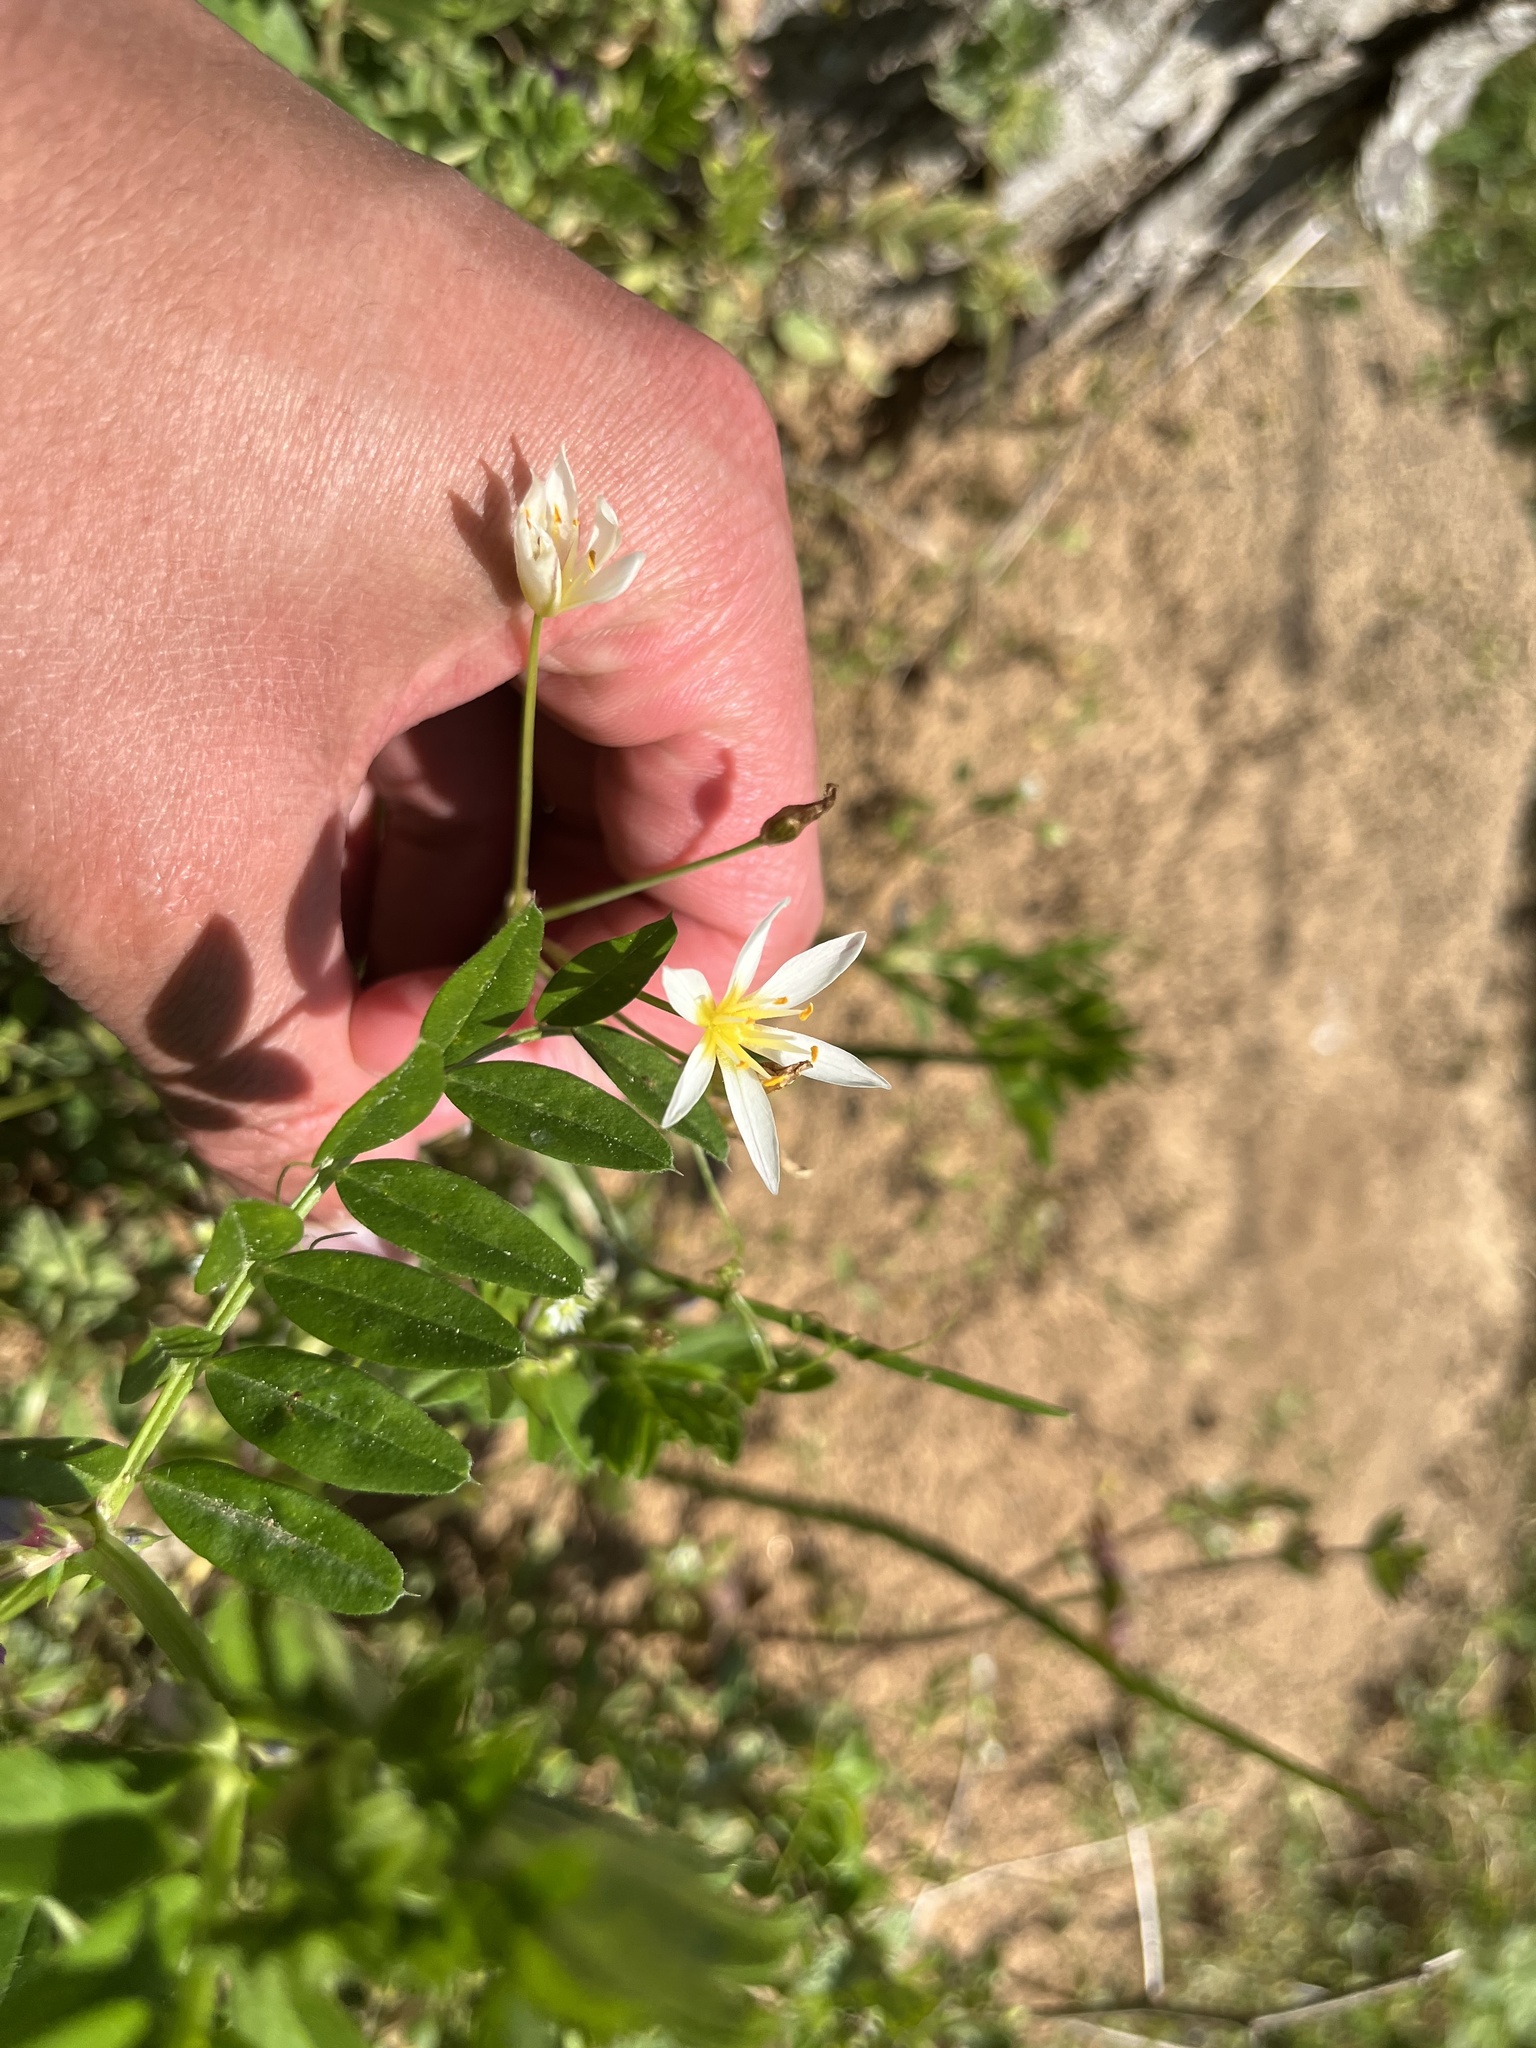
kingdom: Plantae
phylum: Tracheophyta
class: Liliopsida
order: Asparagales
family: Amaryllidaceae
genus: Nothoscordum
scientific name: Nothoscordum bivalve
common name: Crow-poison
